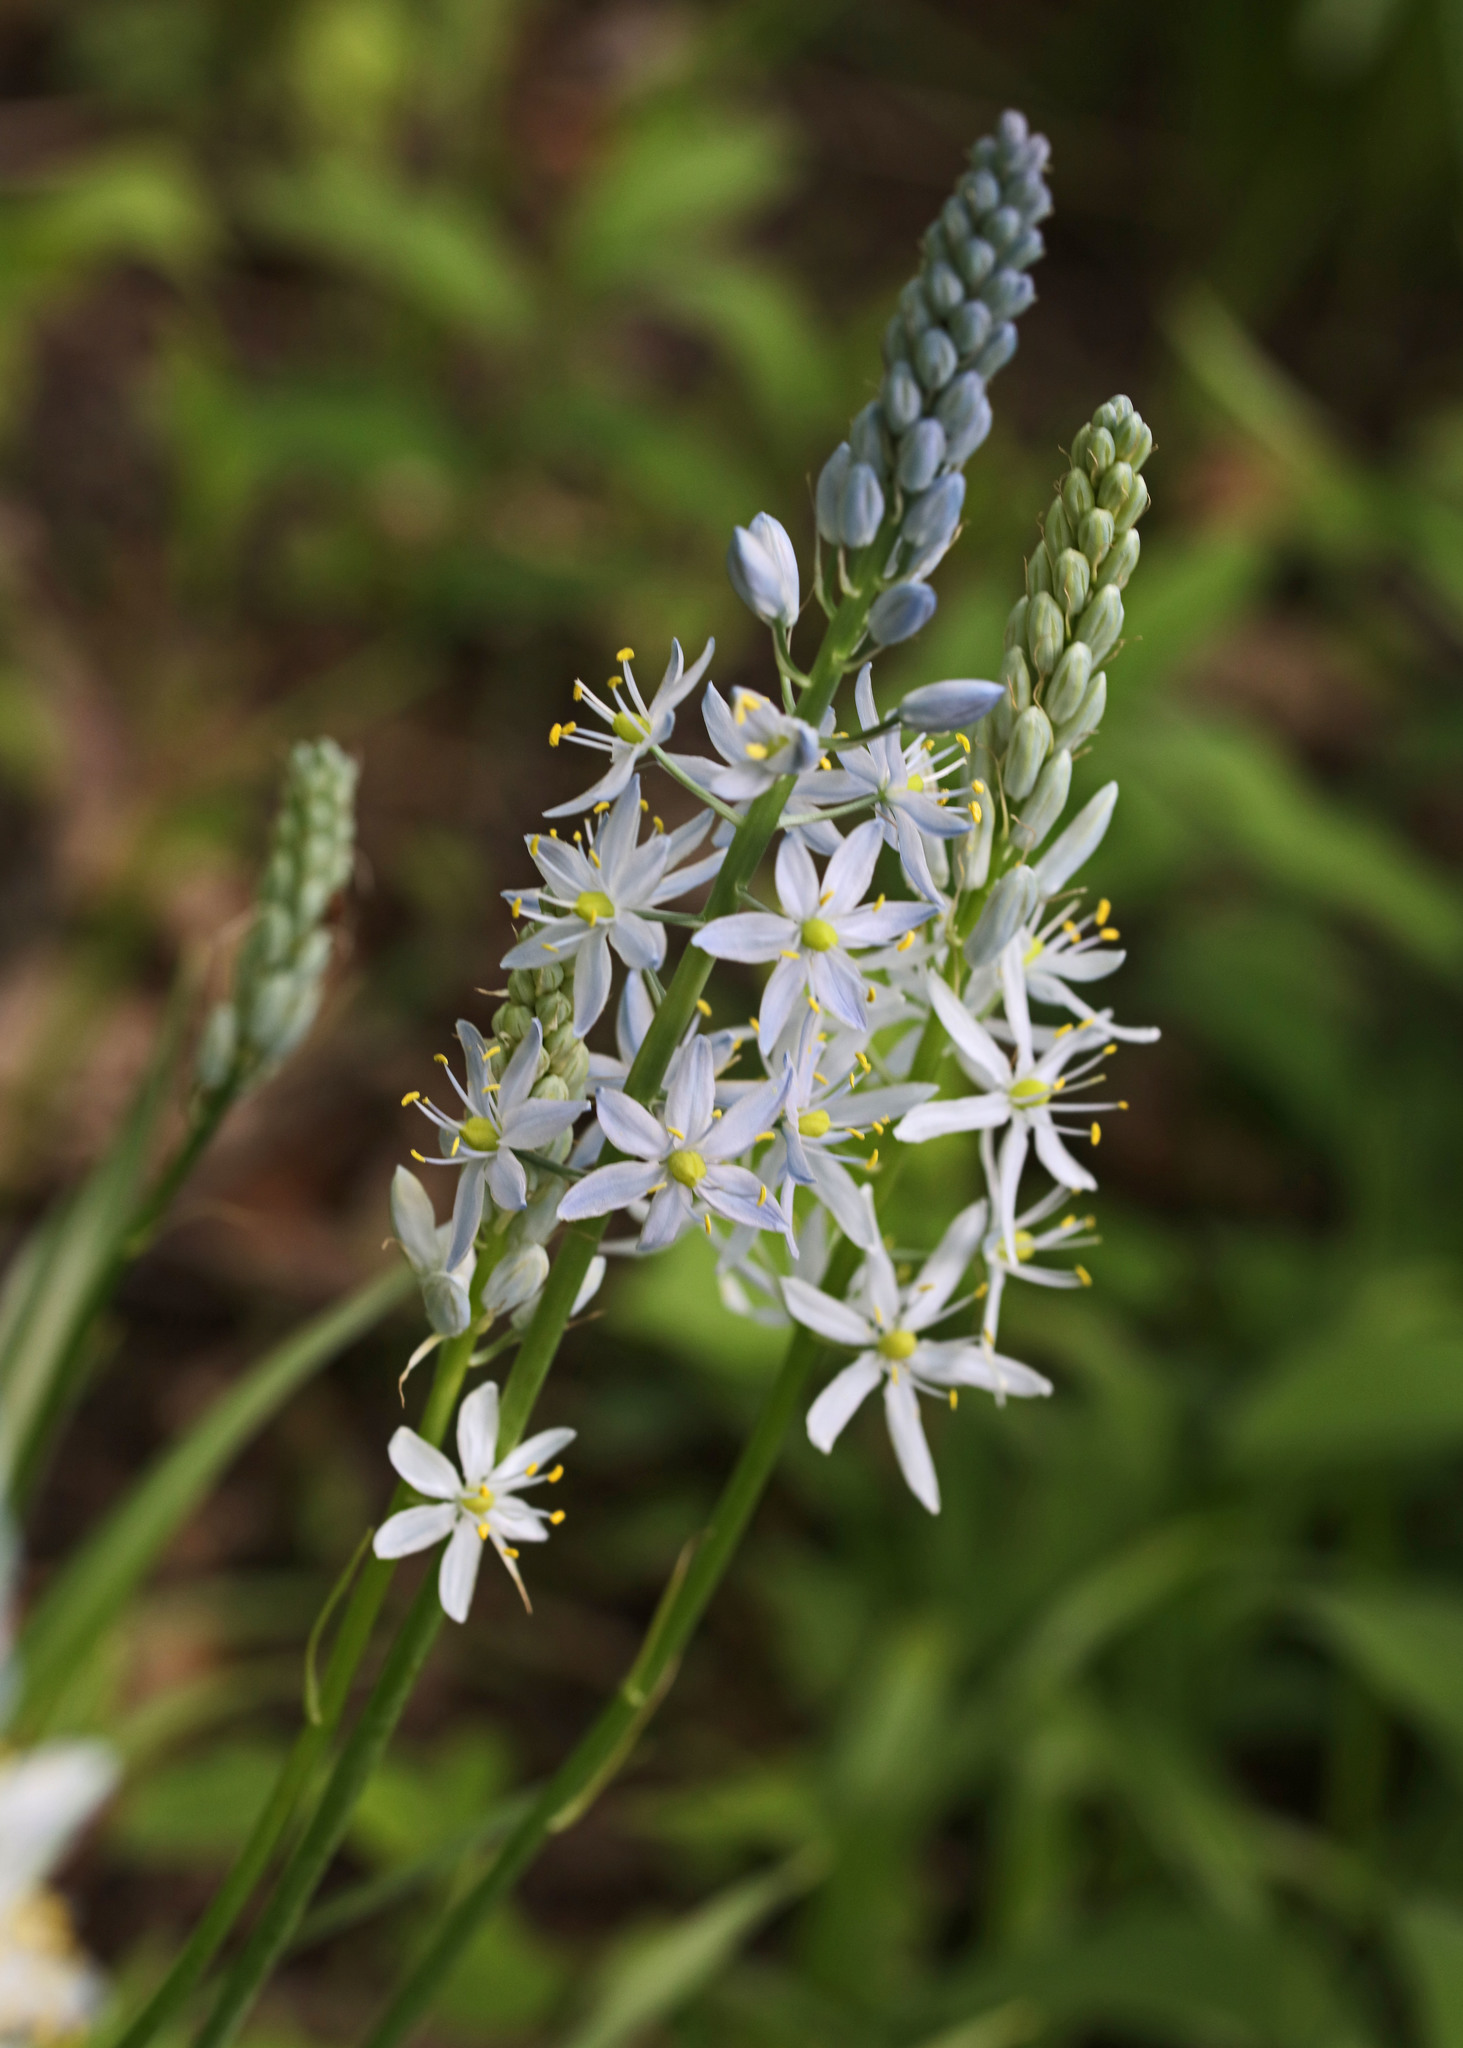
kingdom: Plantae
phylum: Tracheophyta
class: Liliopsida
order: Asparagales
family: Asparagaceae
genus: Camassia
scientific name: Camassia scilloides
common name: Wild hyacinth
